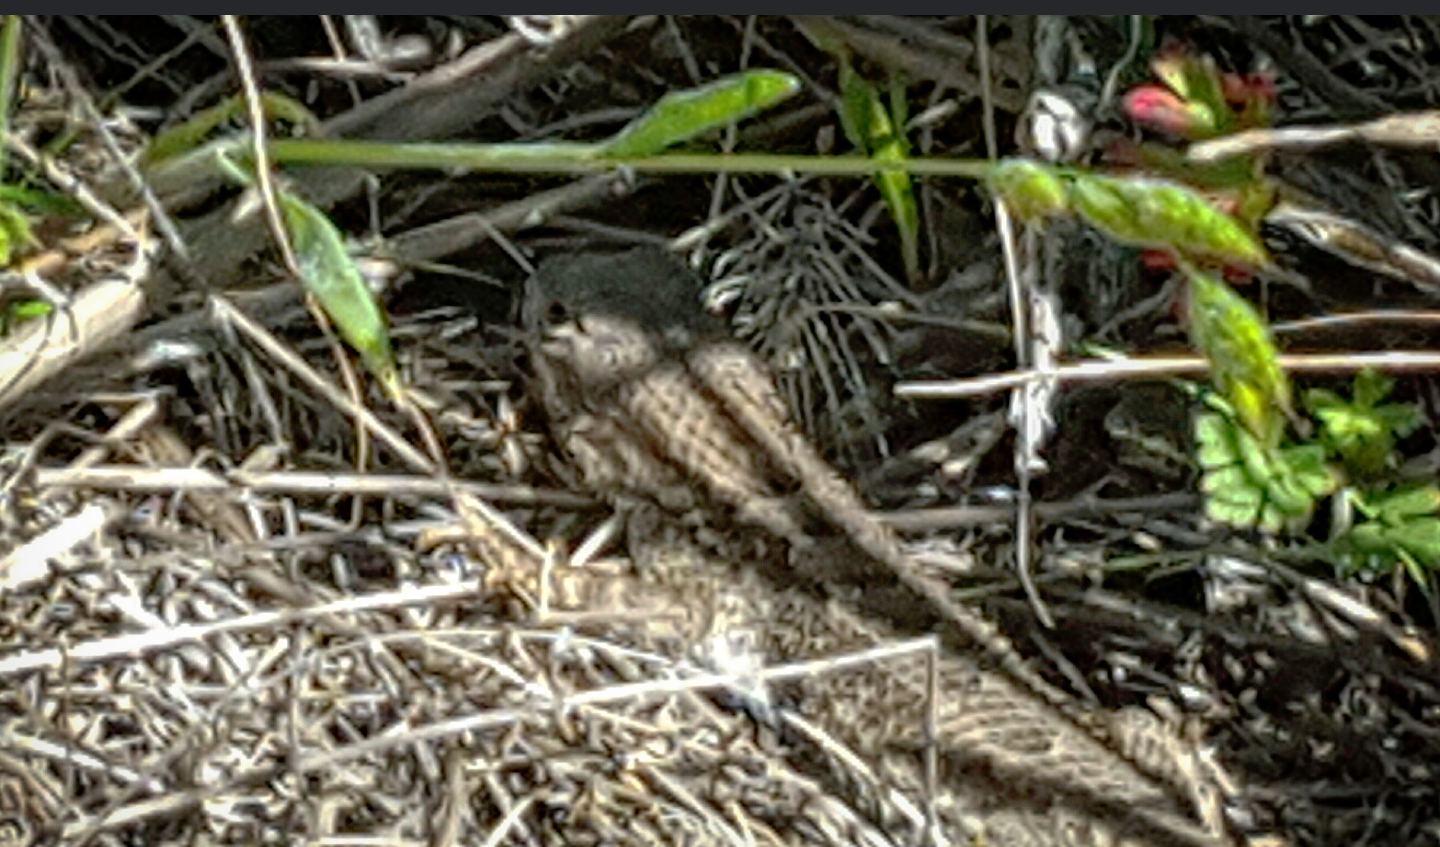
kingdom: Animalia
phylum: Chordata
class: Squamata
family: Phrynosomatidae
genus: Sceloporus
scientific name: Sceloporus occidentalis
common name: Western fence lizard
